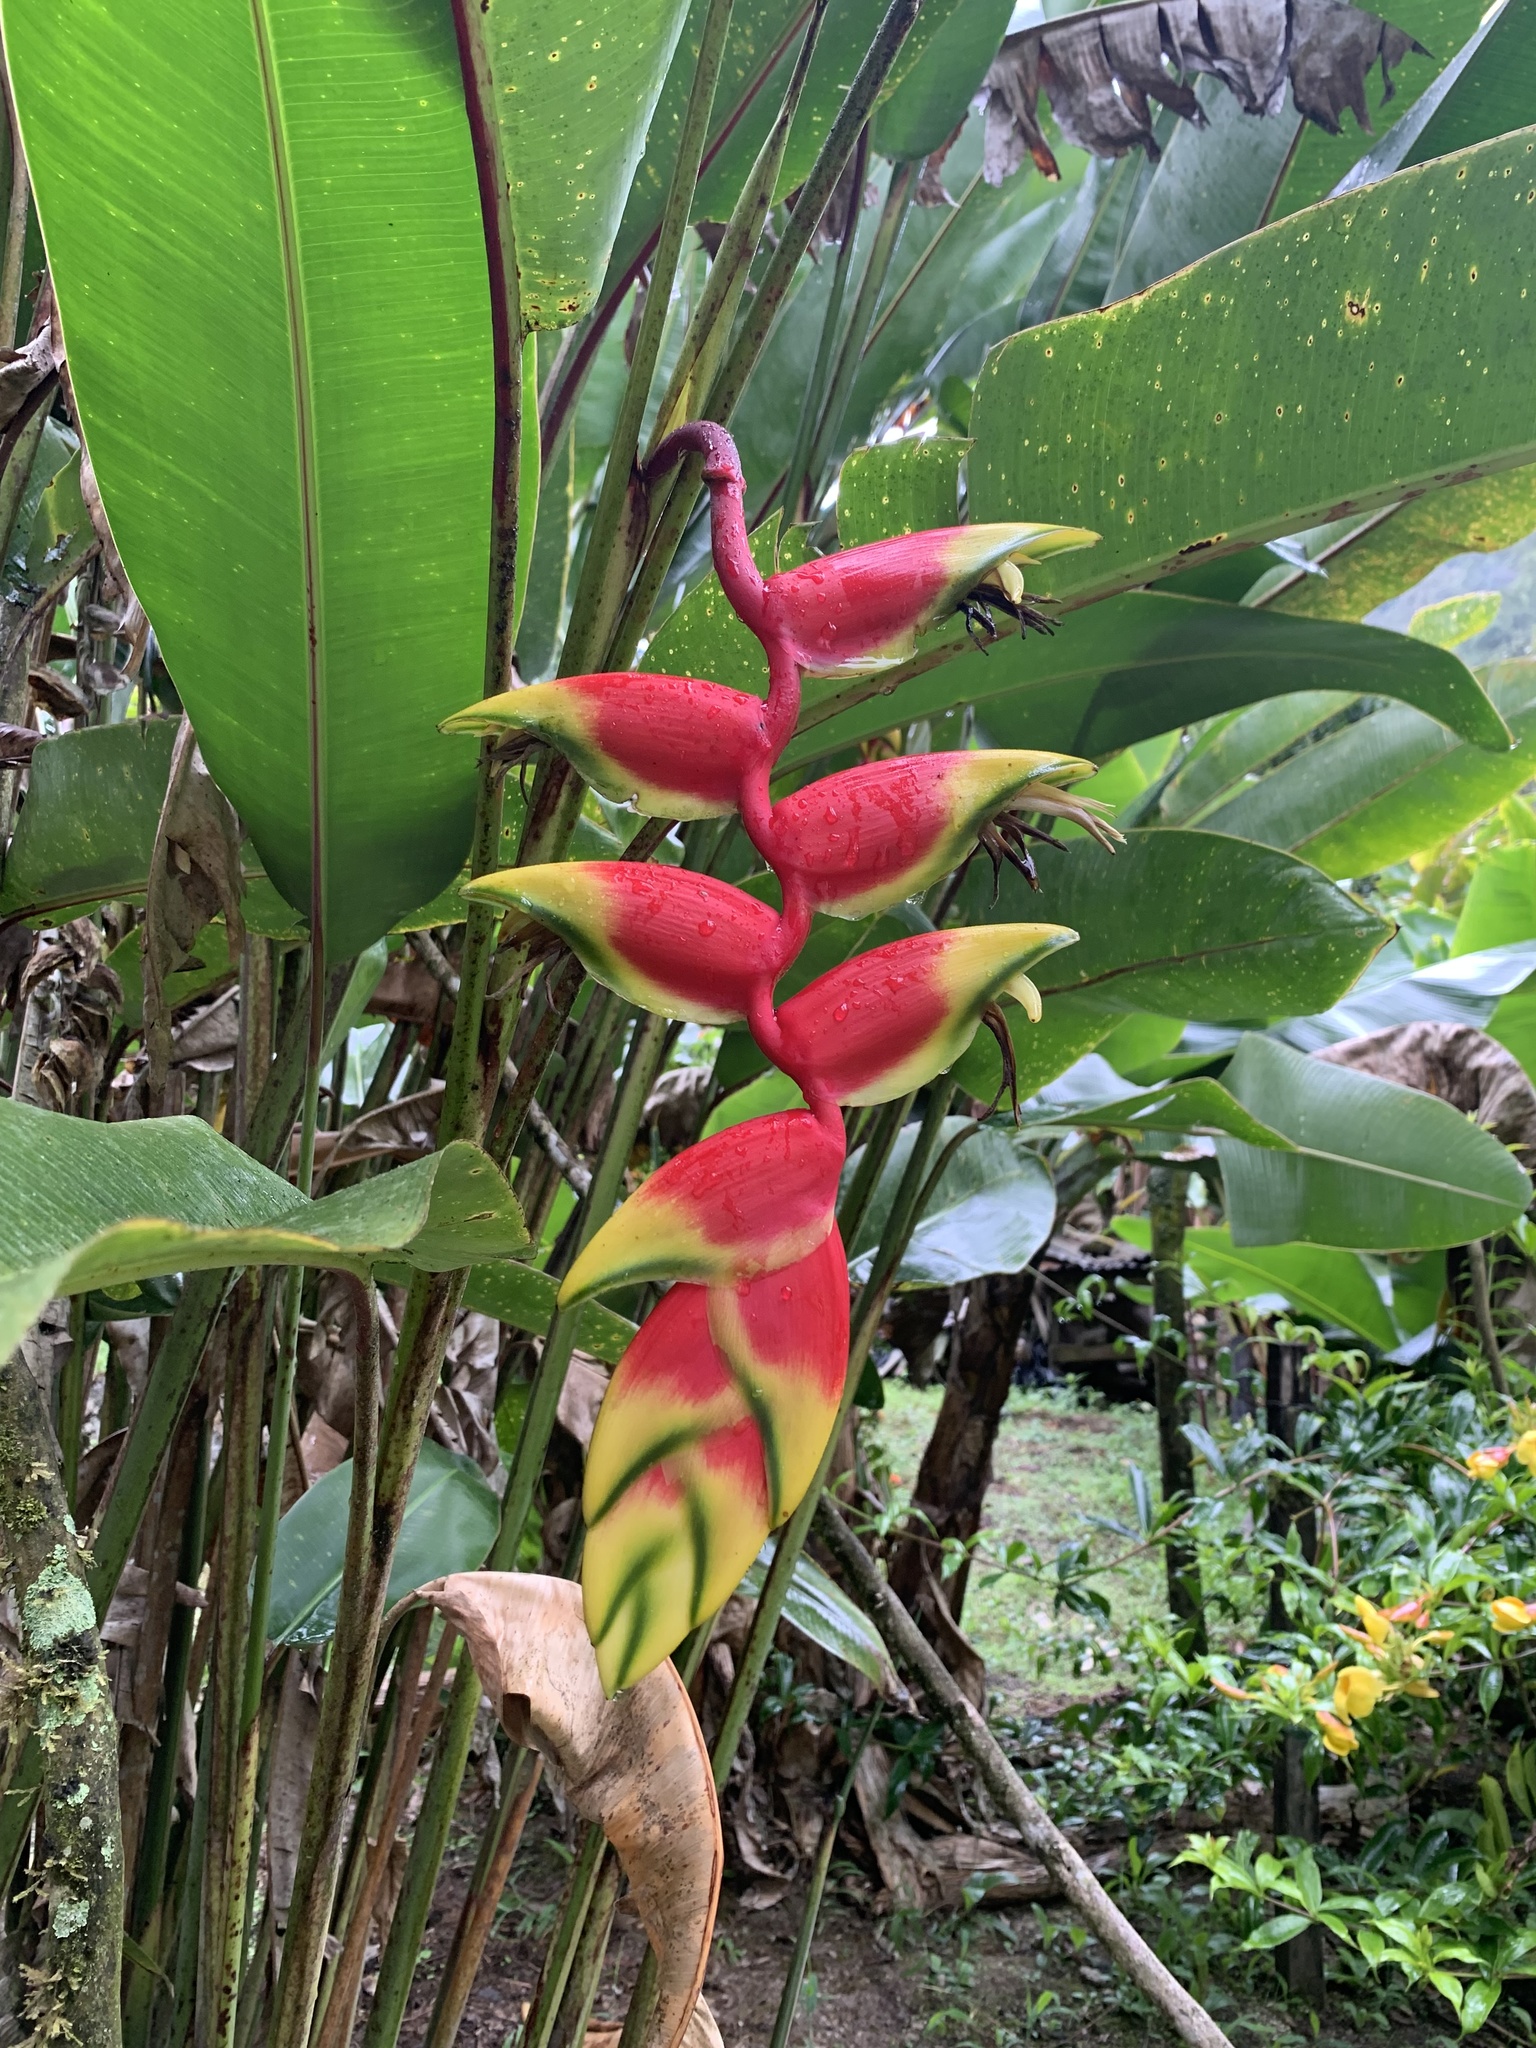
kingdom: Plantae
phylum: Tracheophyta
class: Liliopsida
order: Zingiberales
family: Heliconiaceae
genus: Heliconia
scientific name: Heliconia rostrata
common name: False bird of paradise
